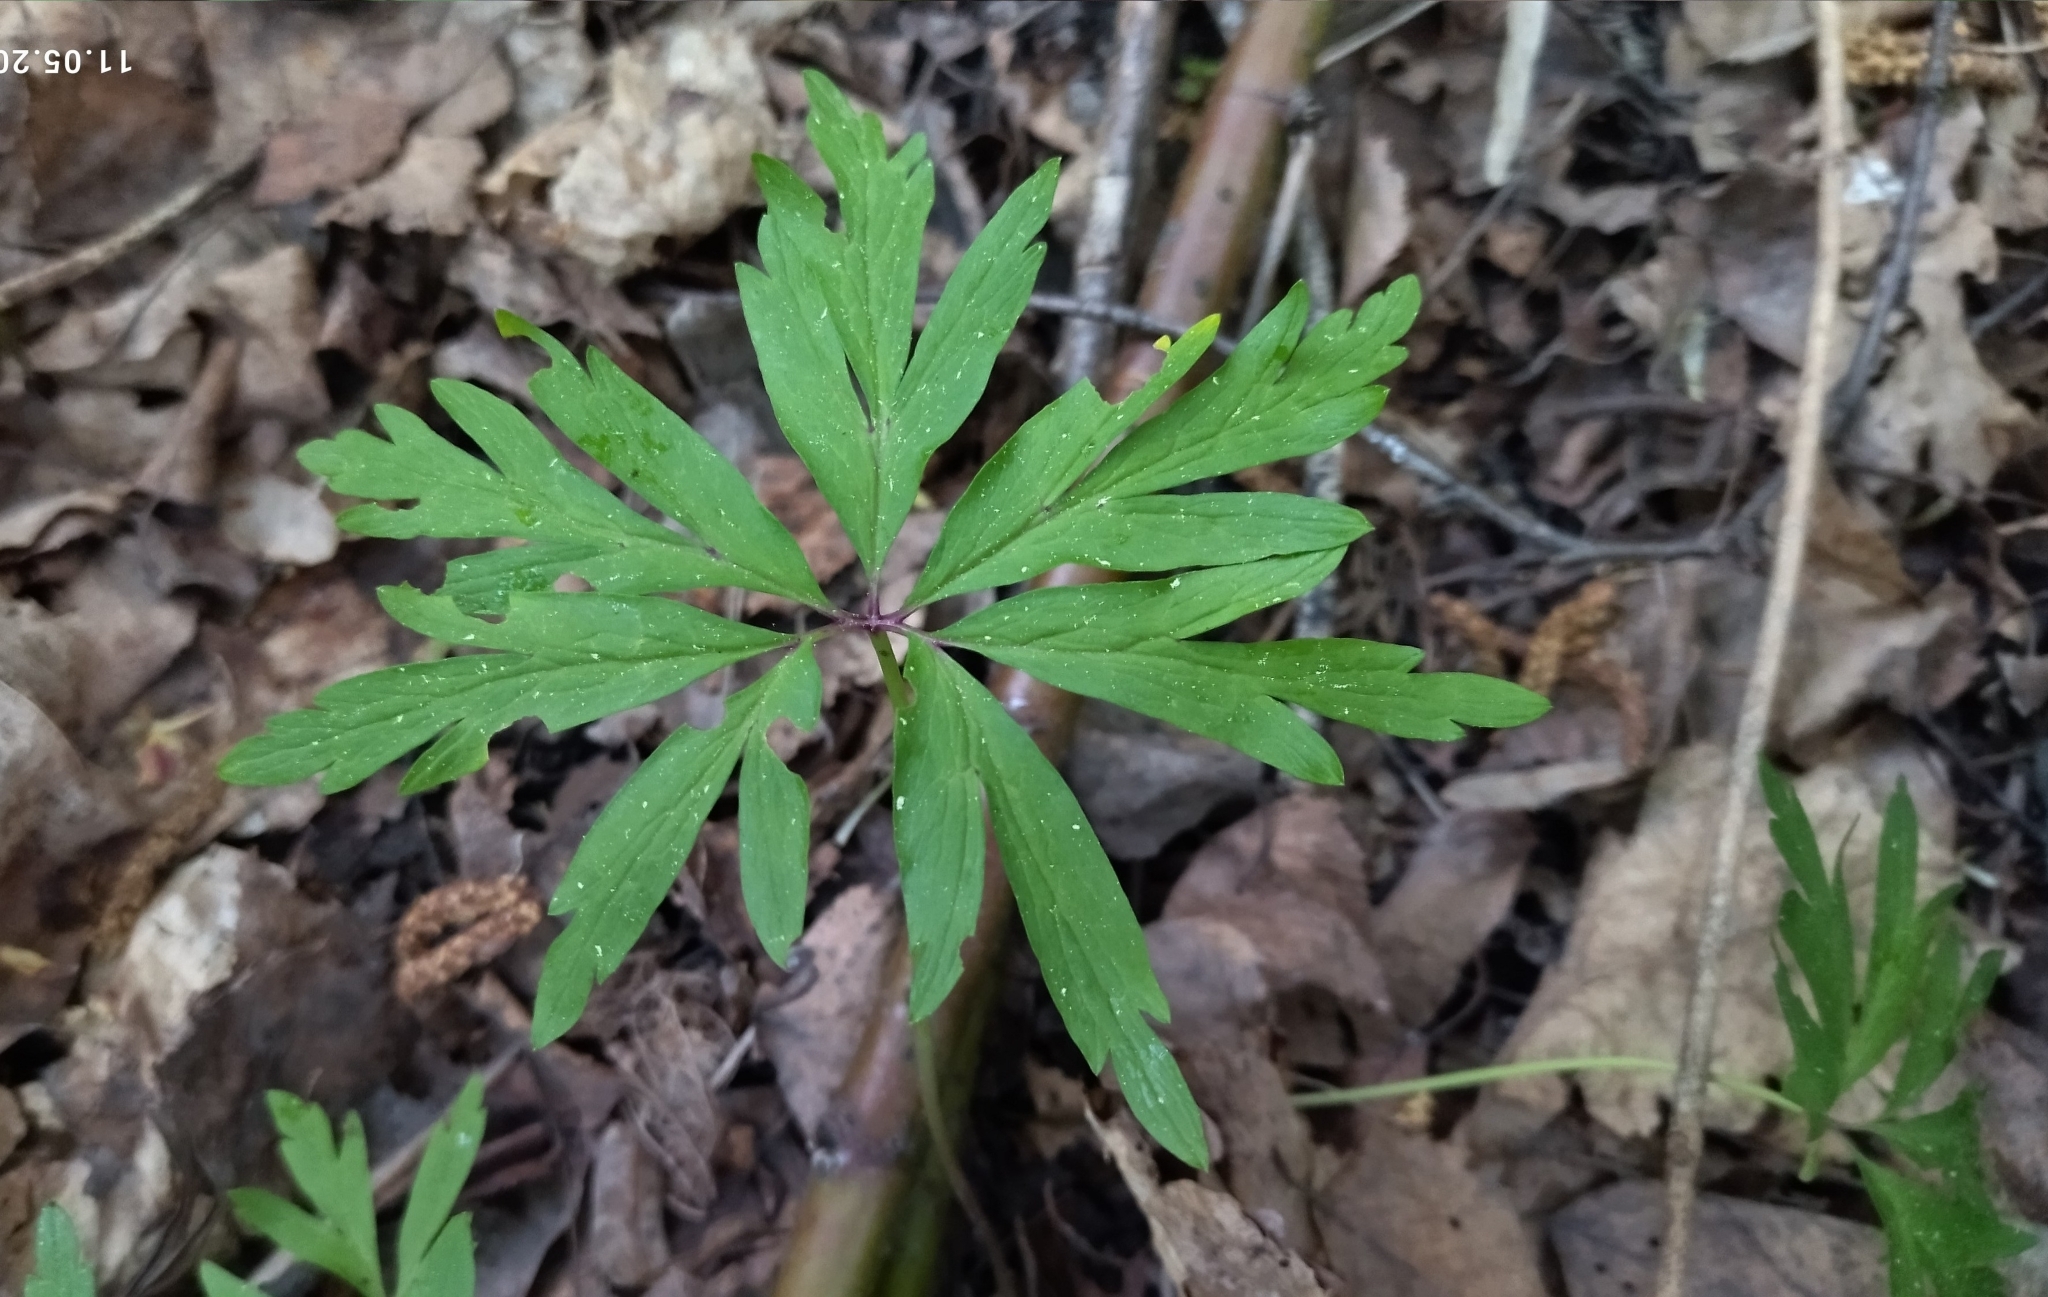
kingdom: Plantae
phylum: Tracheophyta
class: Magnoliopsida
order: Ranunculales
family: Ranunculaceae
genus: Anemone
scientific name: Anemone ranunculoides
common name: Yellow anemone
